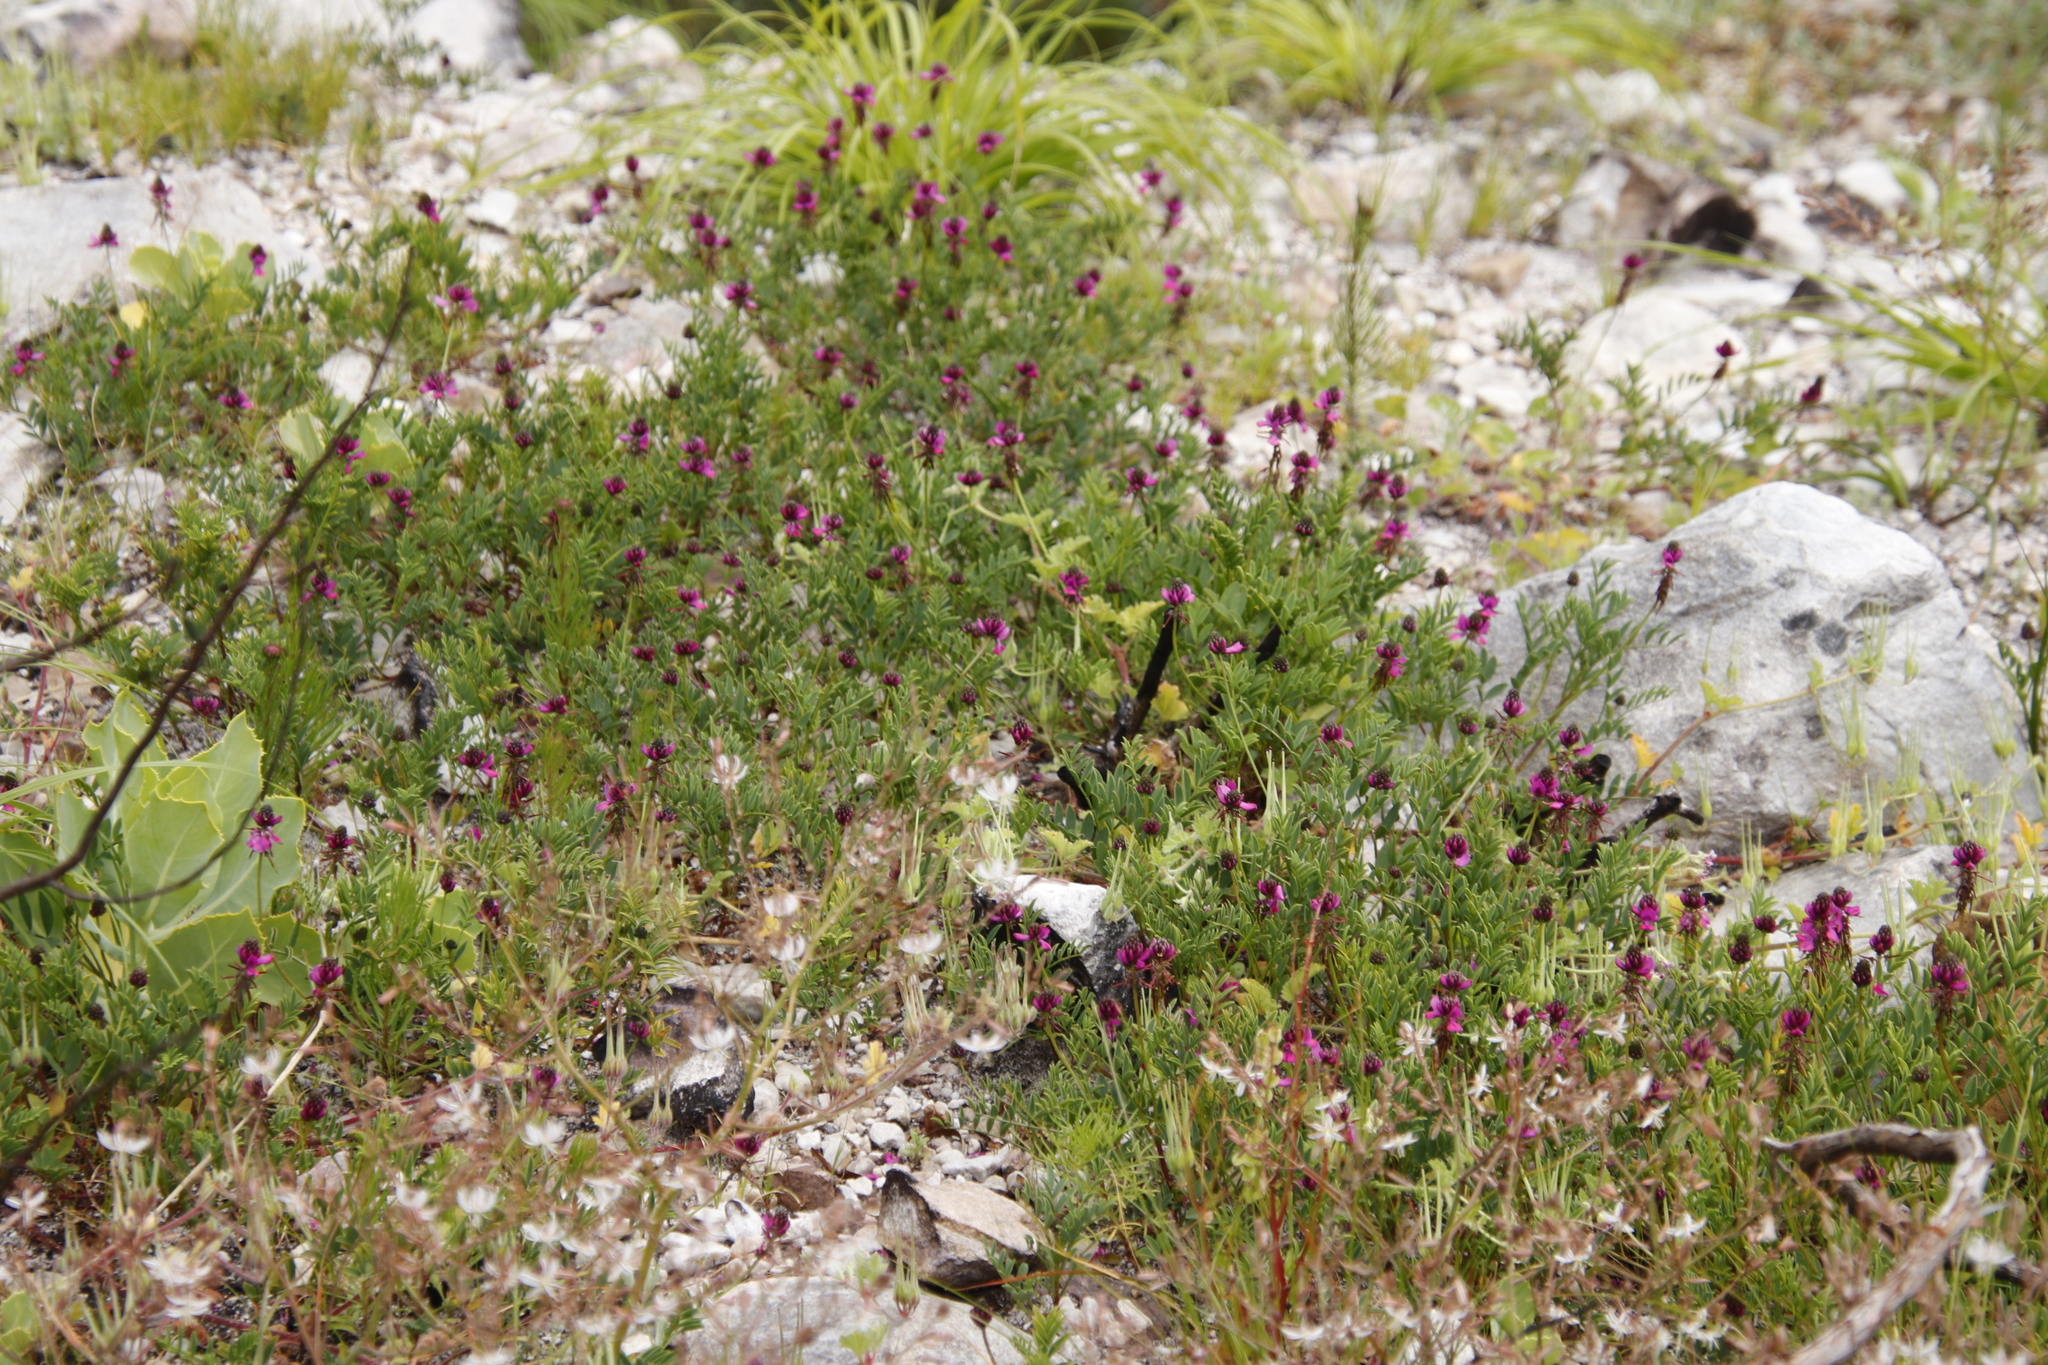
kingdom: Plantae
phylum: Tracheophyta
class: Magnoliopsida
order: Fabales
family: Fabaceae
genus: Indigofera
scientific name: Indigofera capillaris
